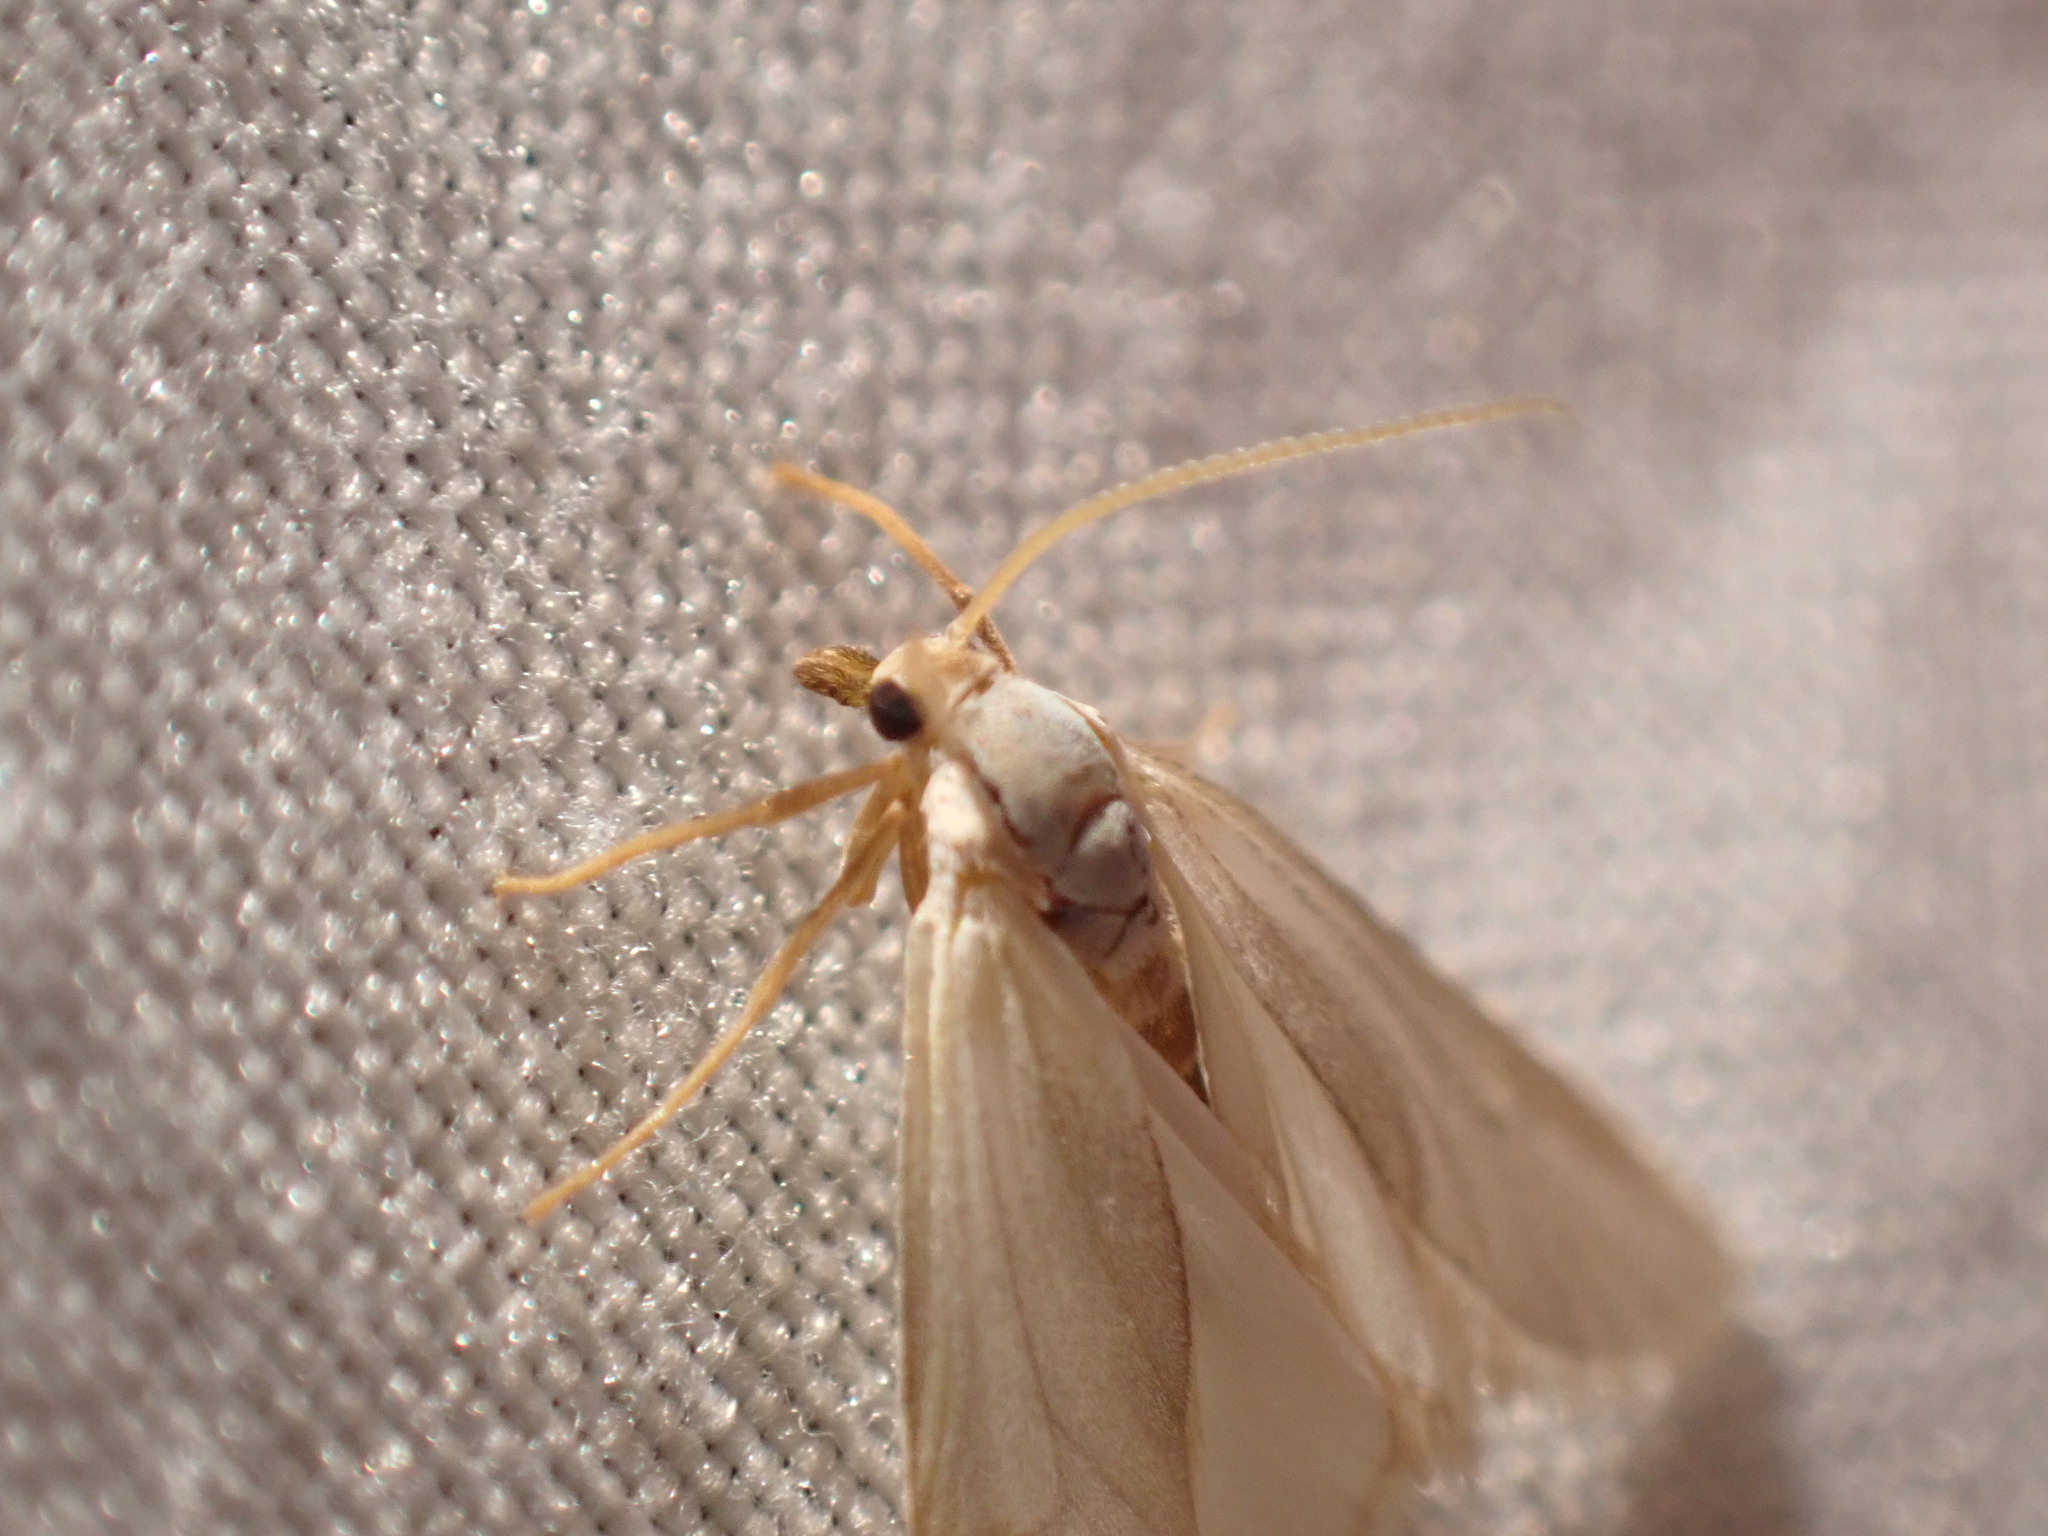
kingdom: Animalia
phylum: Arthropoda
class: Insecta
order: Lepidoptera
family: Crambidae
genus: Acentria
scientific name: Acentria ephemerella
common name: European water moth
